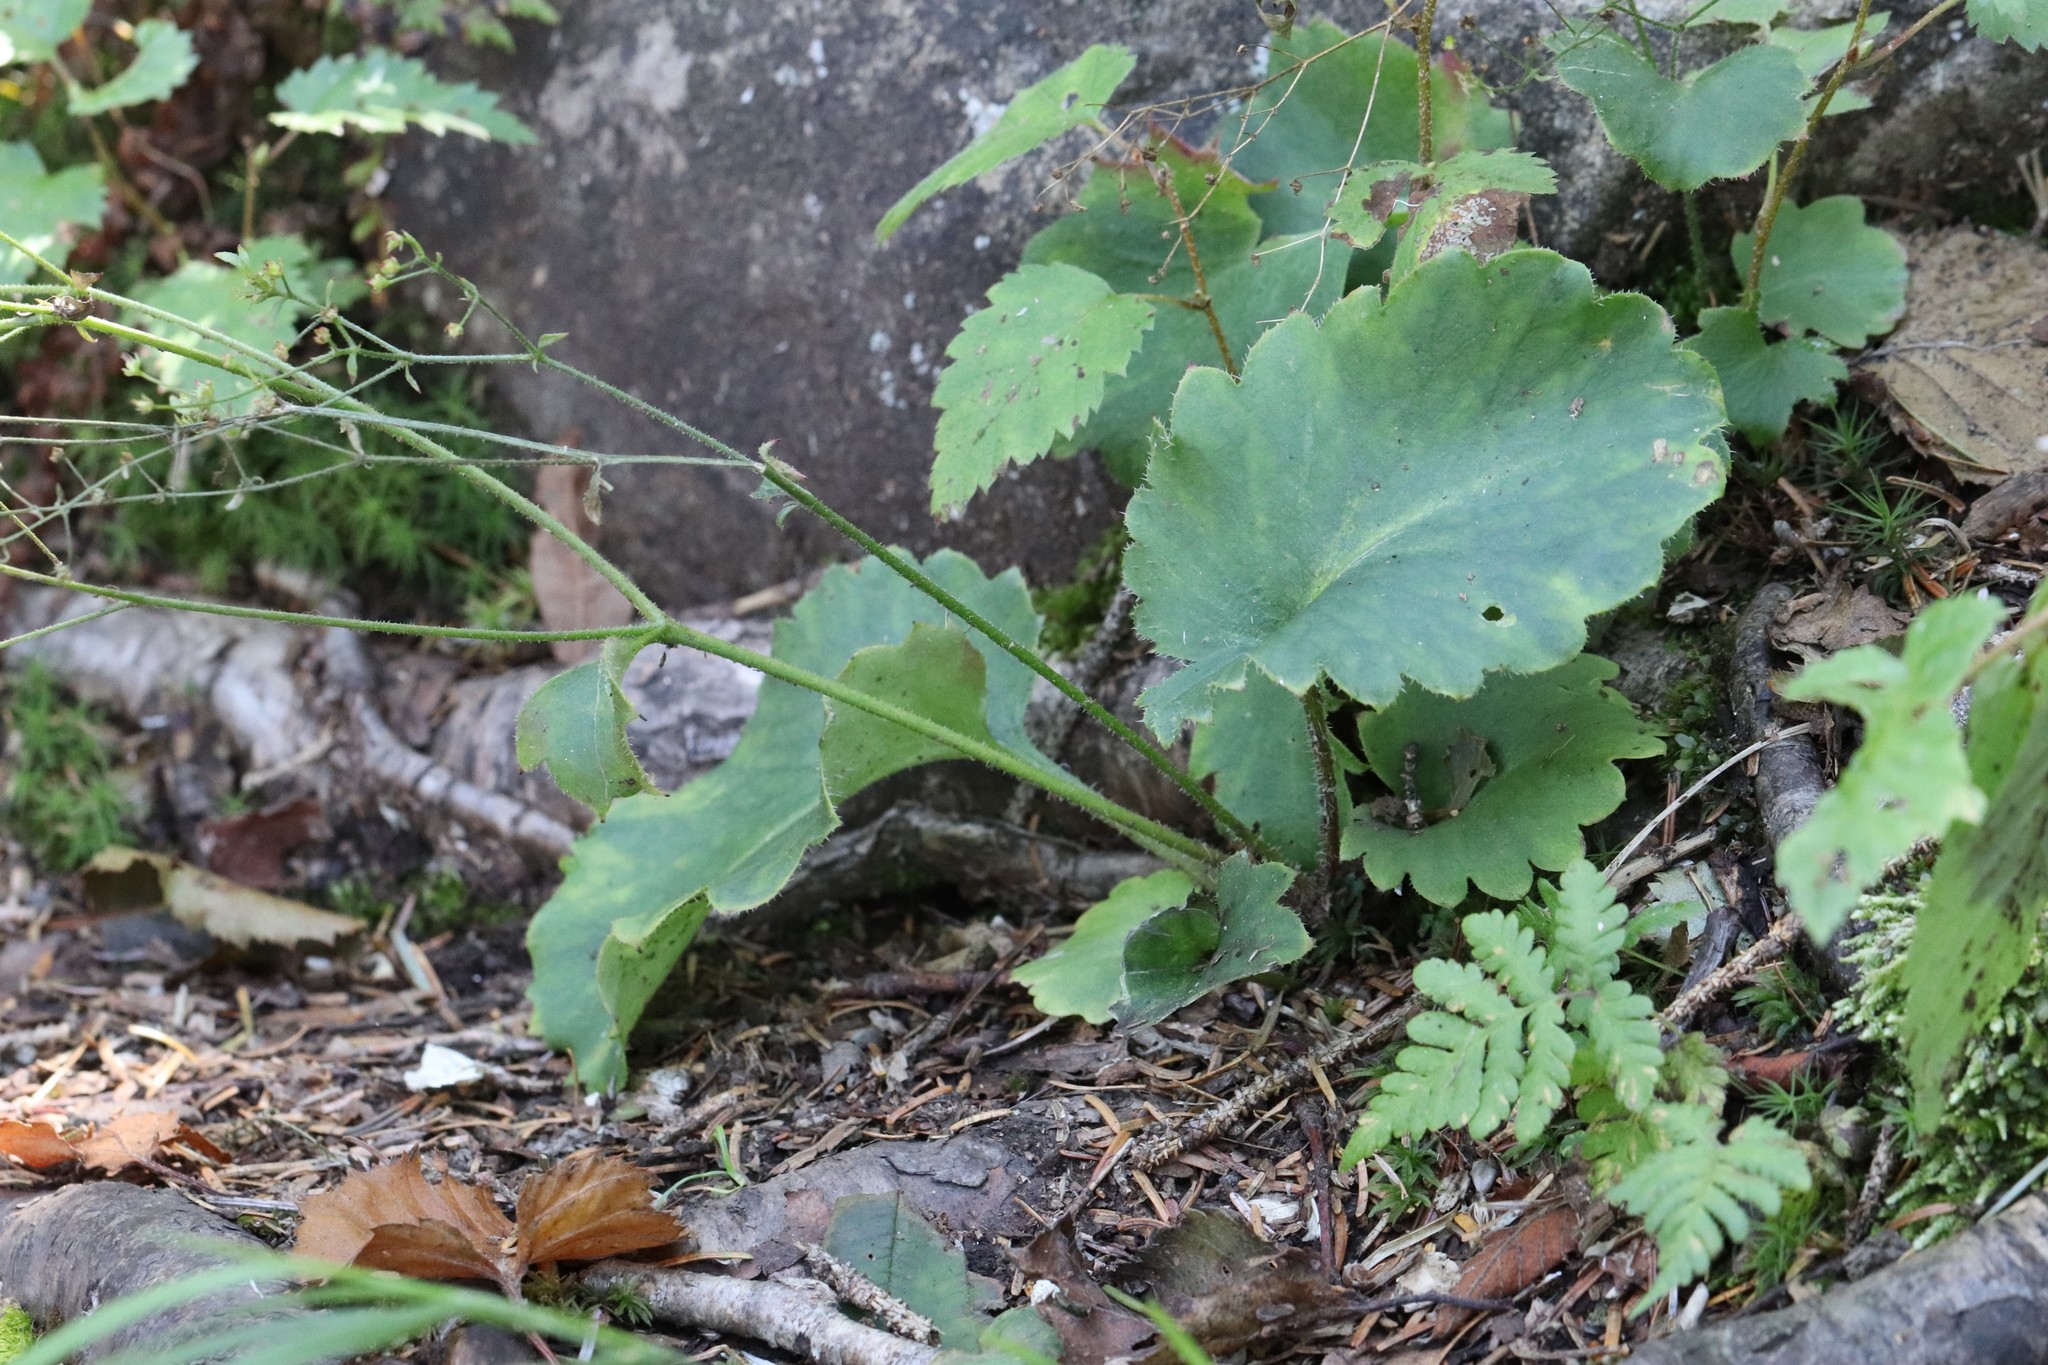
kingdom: Plantae
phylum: Tracheophyta
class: Magnoliopsida
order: Saxifragales
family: Saxifragaceae
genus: Micranthes
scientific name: Micranthes oblongifolia
